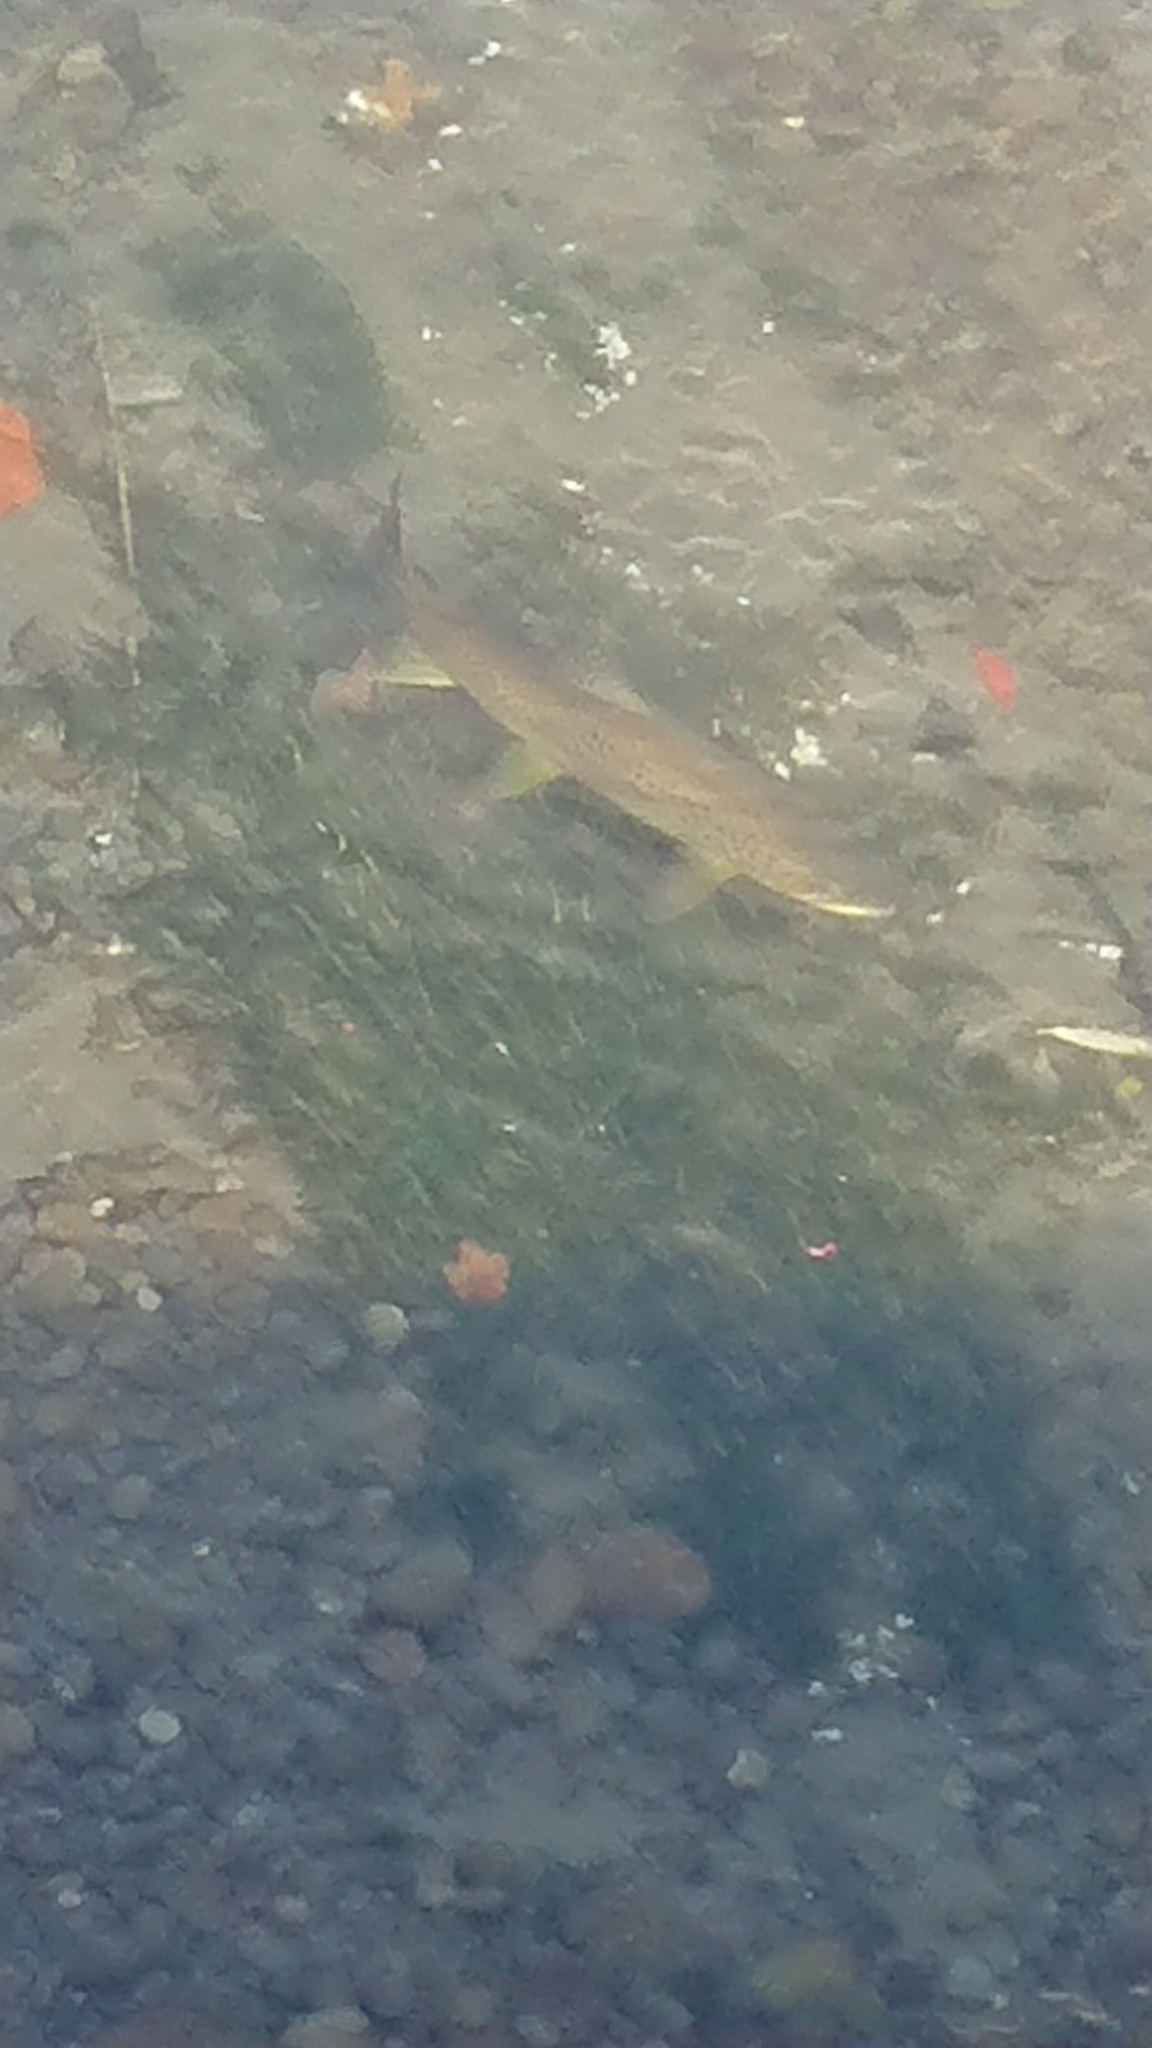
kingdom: Animalia
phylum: Chordata
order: Salmoniformes
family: Salmonidae
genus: Salmo
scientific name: Salmo trutta
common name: Brown trout
